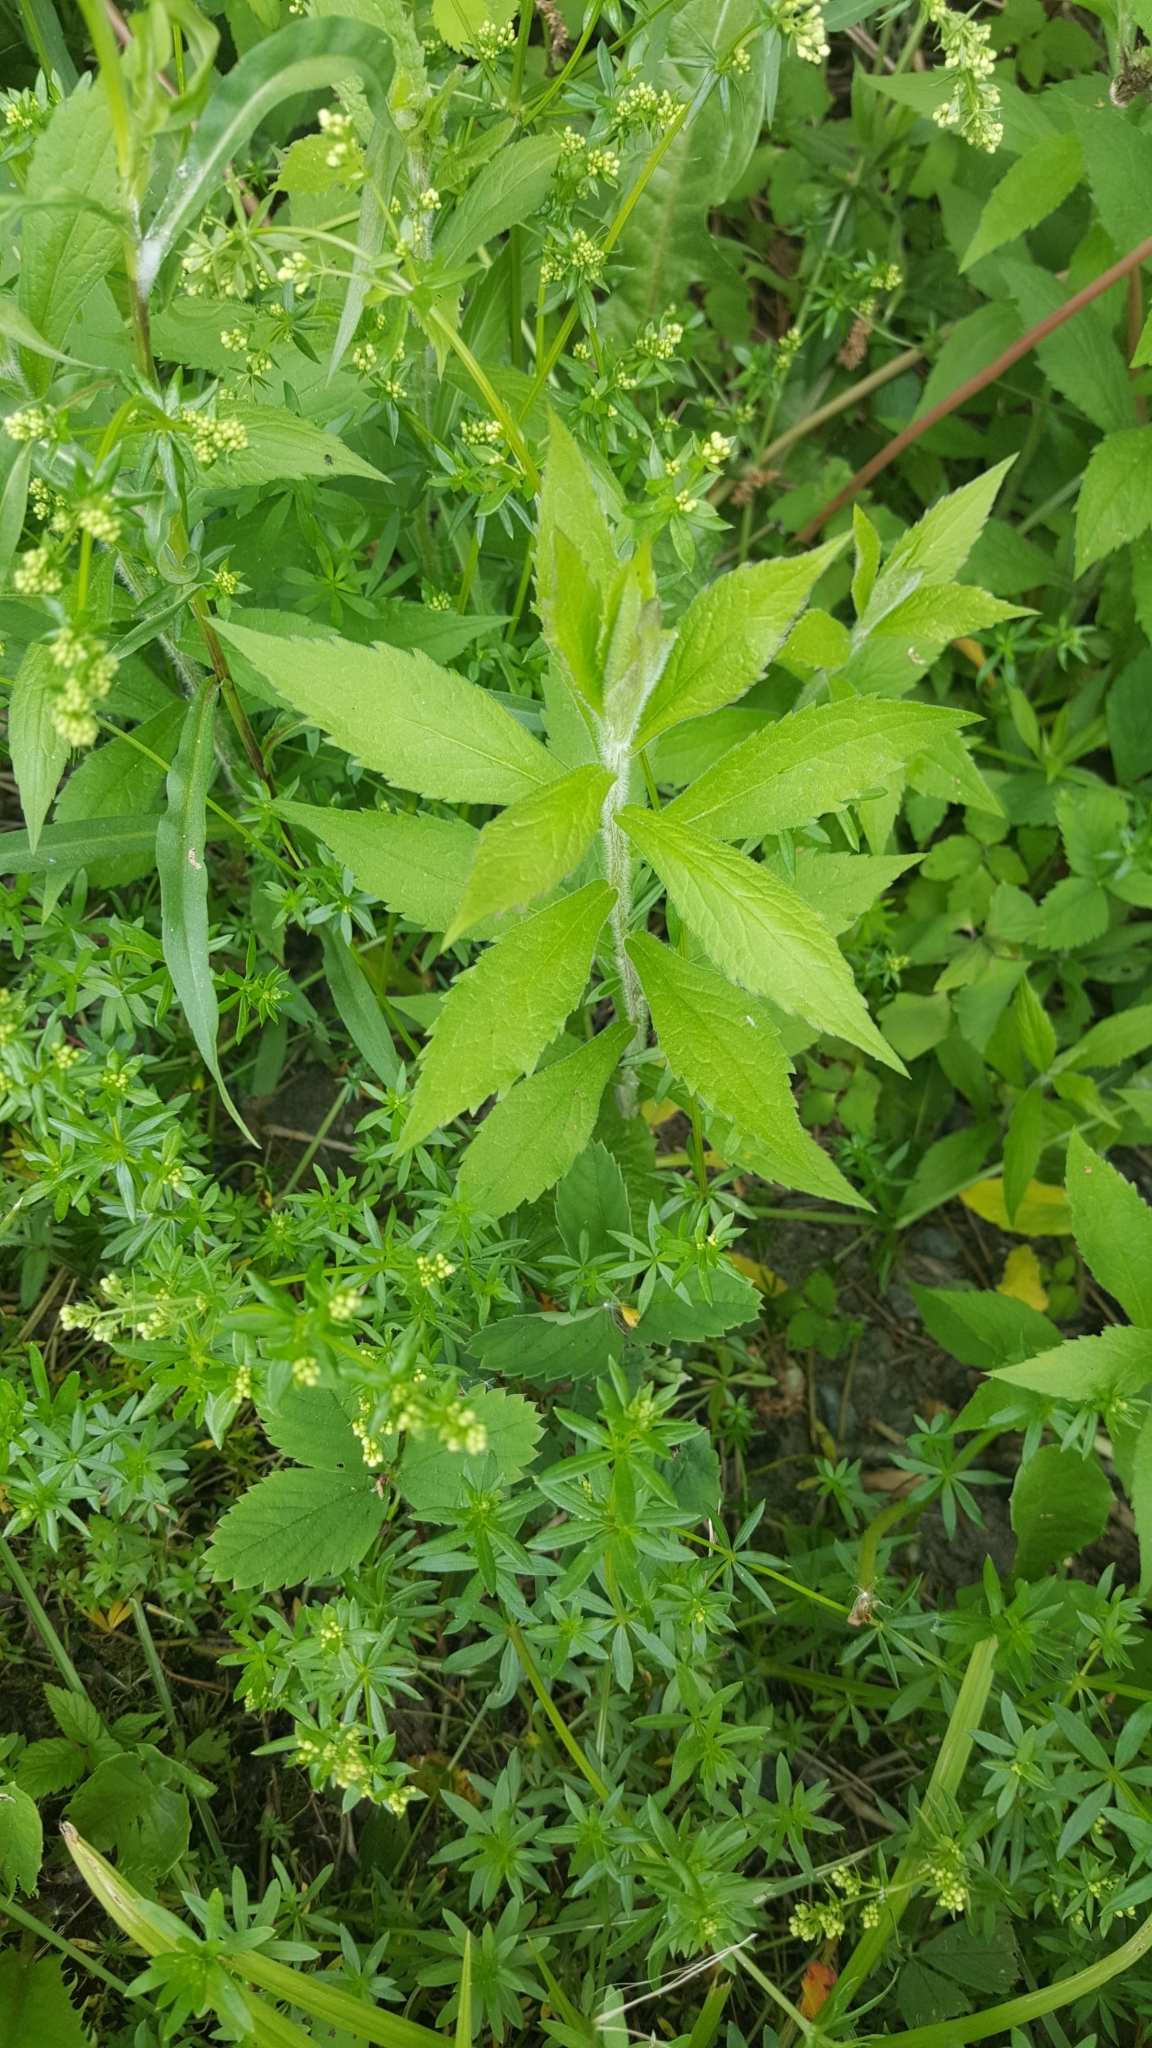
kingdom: Plantae
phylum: Tracheophyta
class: Magnoliopsida
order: Asterales
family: Asteraceae
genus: Solidago
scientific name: Solidago rugosa
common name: Rough-stemmed goldenrod
